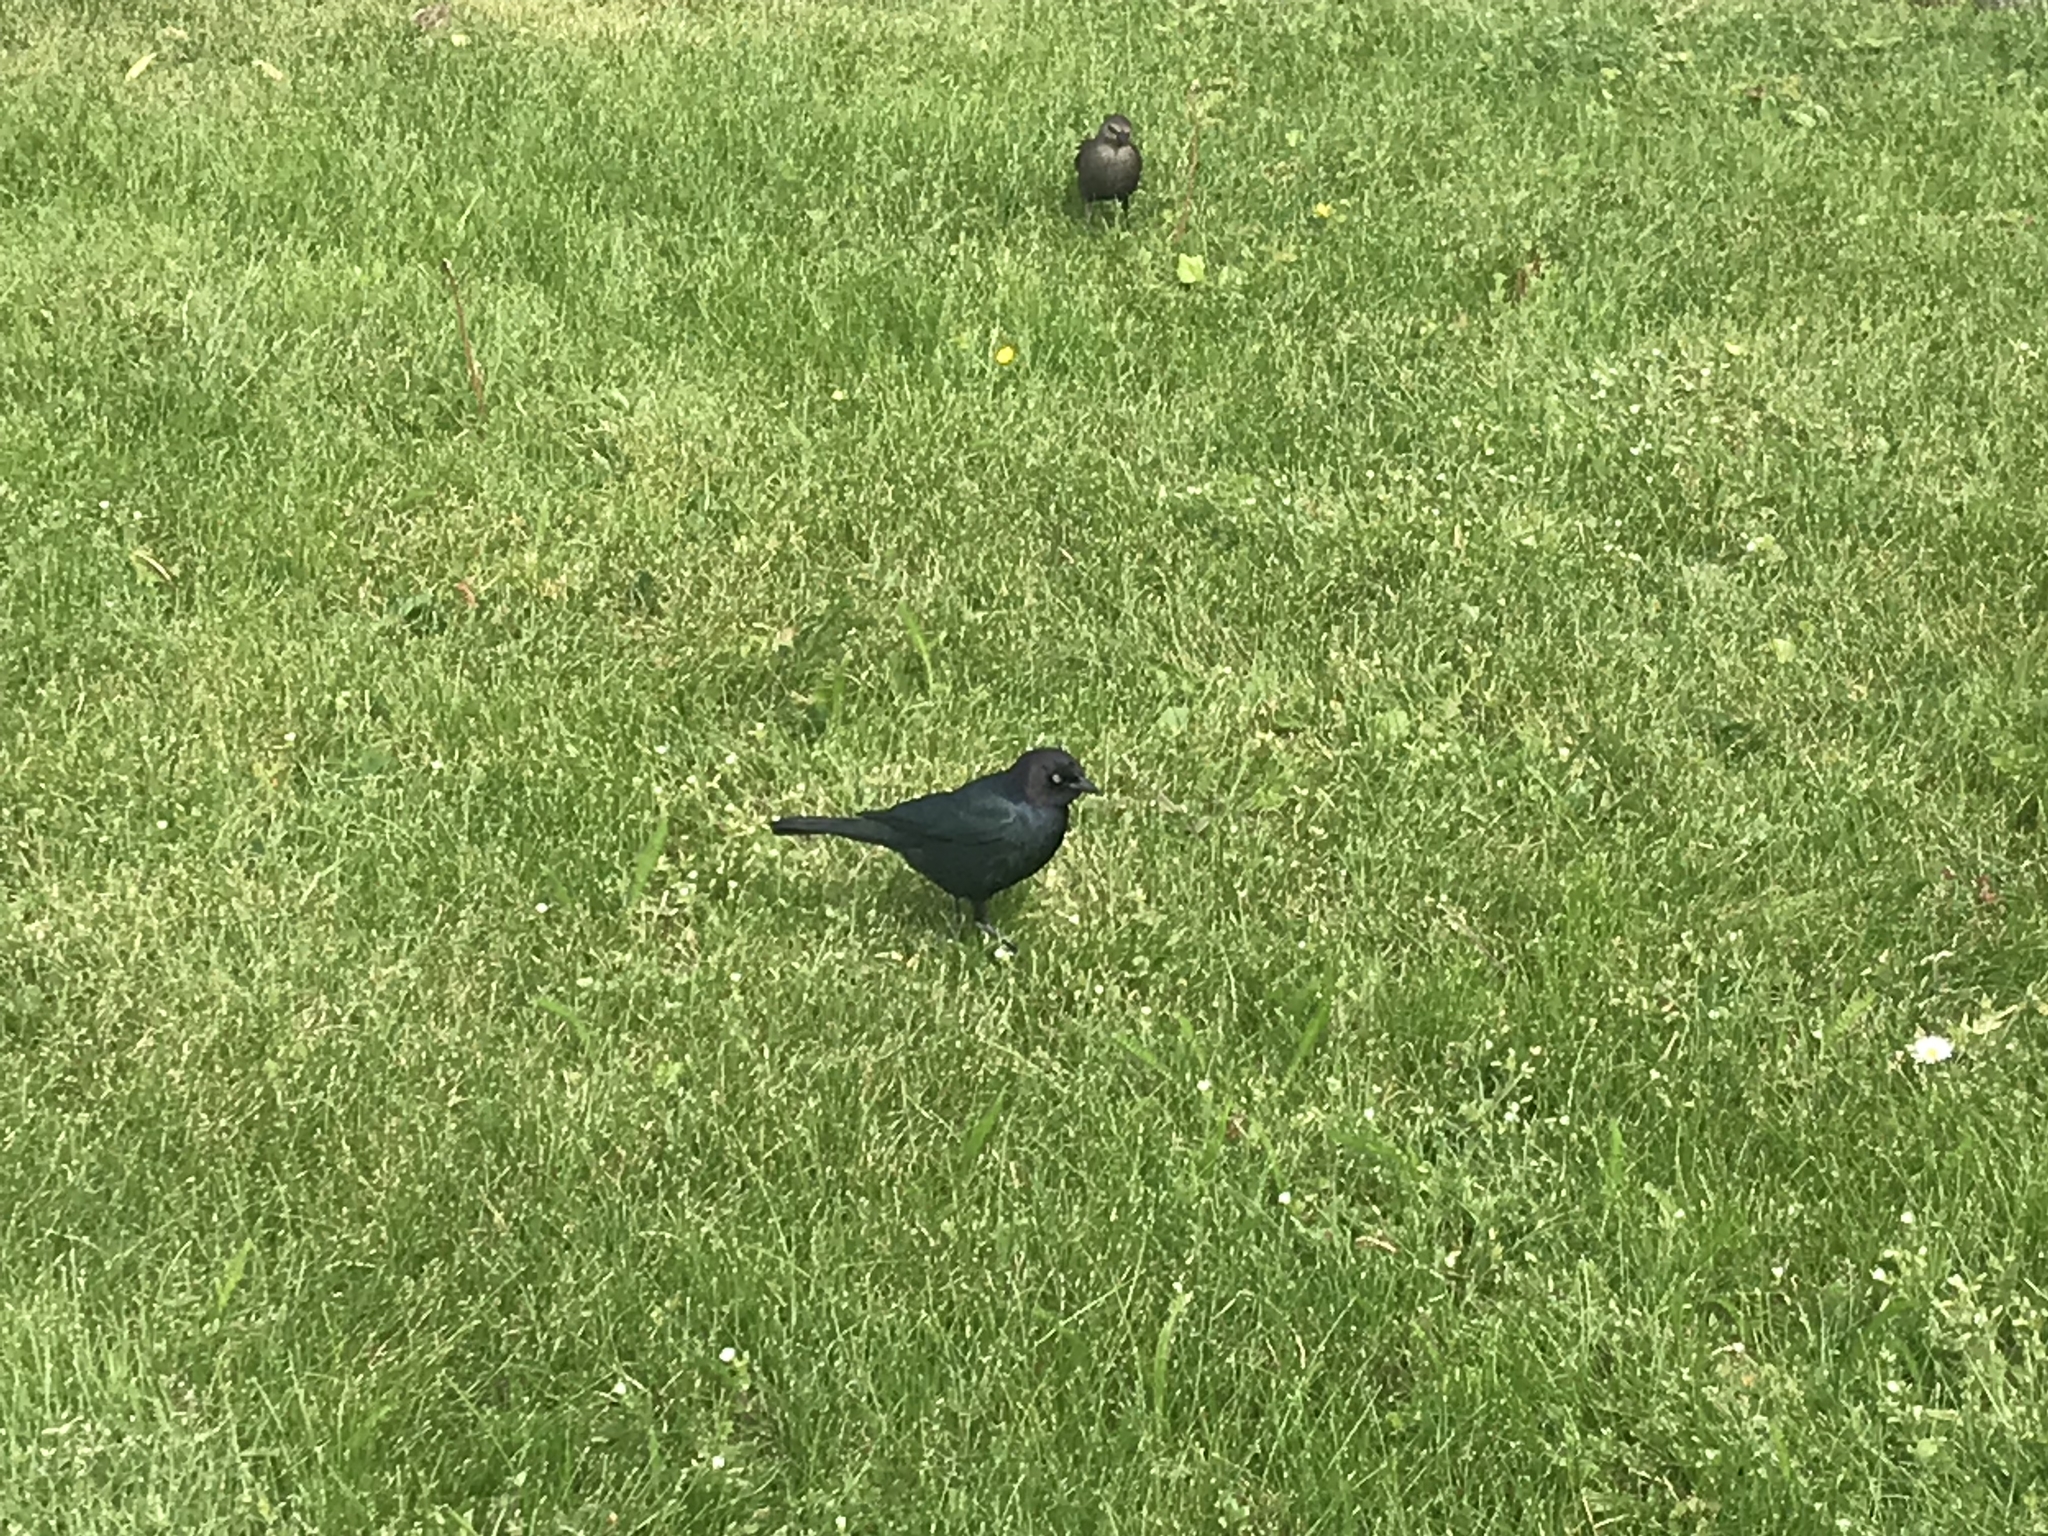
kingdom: Animalia
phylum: Chordata
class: Aves
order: Passeriformes
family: Icteridae
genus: Euphagus
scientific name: Euphagus cyanocephalus
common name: Brewer's blackbird
